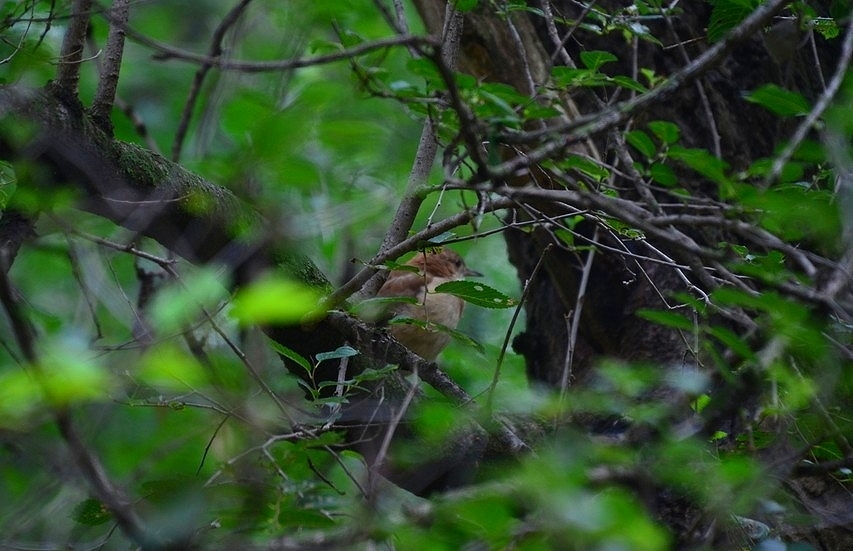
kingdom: Animalia
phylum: Chordata
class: Aves
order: Passeriformes
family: Furnariidae
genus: Furnarius
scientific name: Furnarius rufus
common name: Rufous hornero
